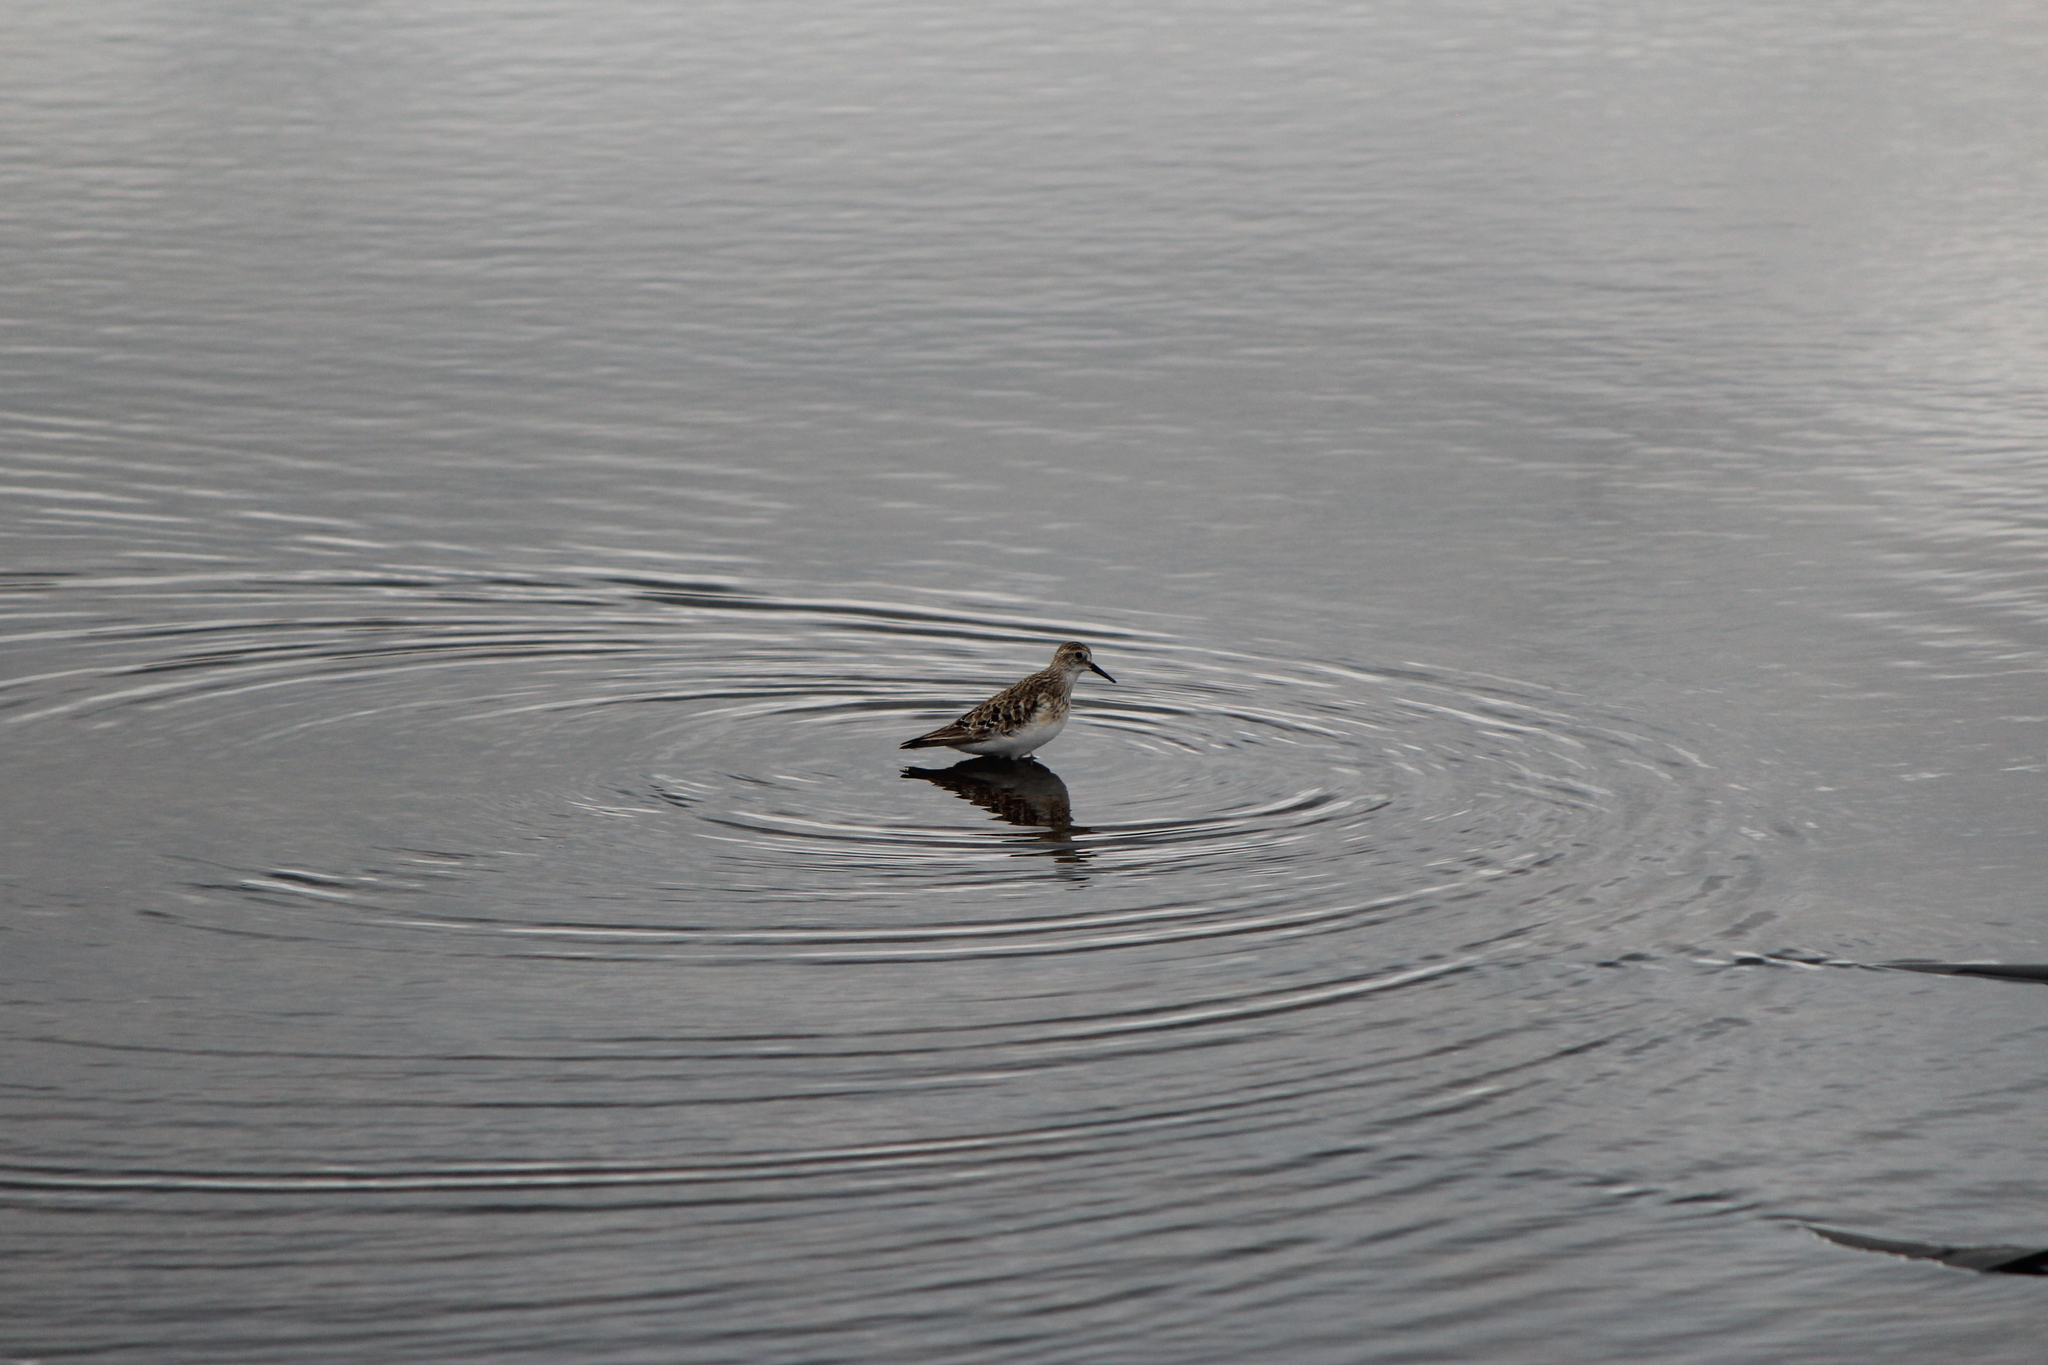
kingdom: Animalia
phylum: Chordata
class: Aves
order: Charadriiformes
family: Scolopacidae
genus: Calidris
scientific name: Calidris bairdii
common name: Baird's sandpiper
